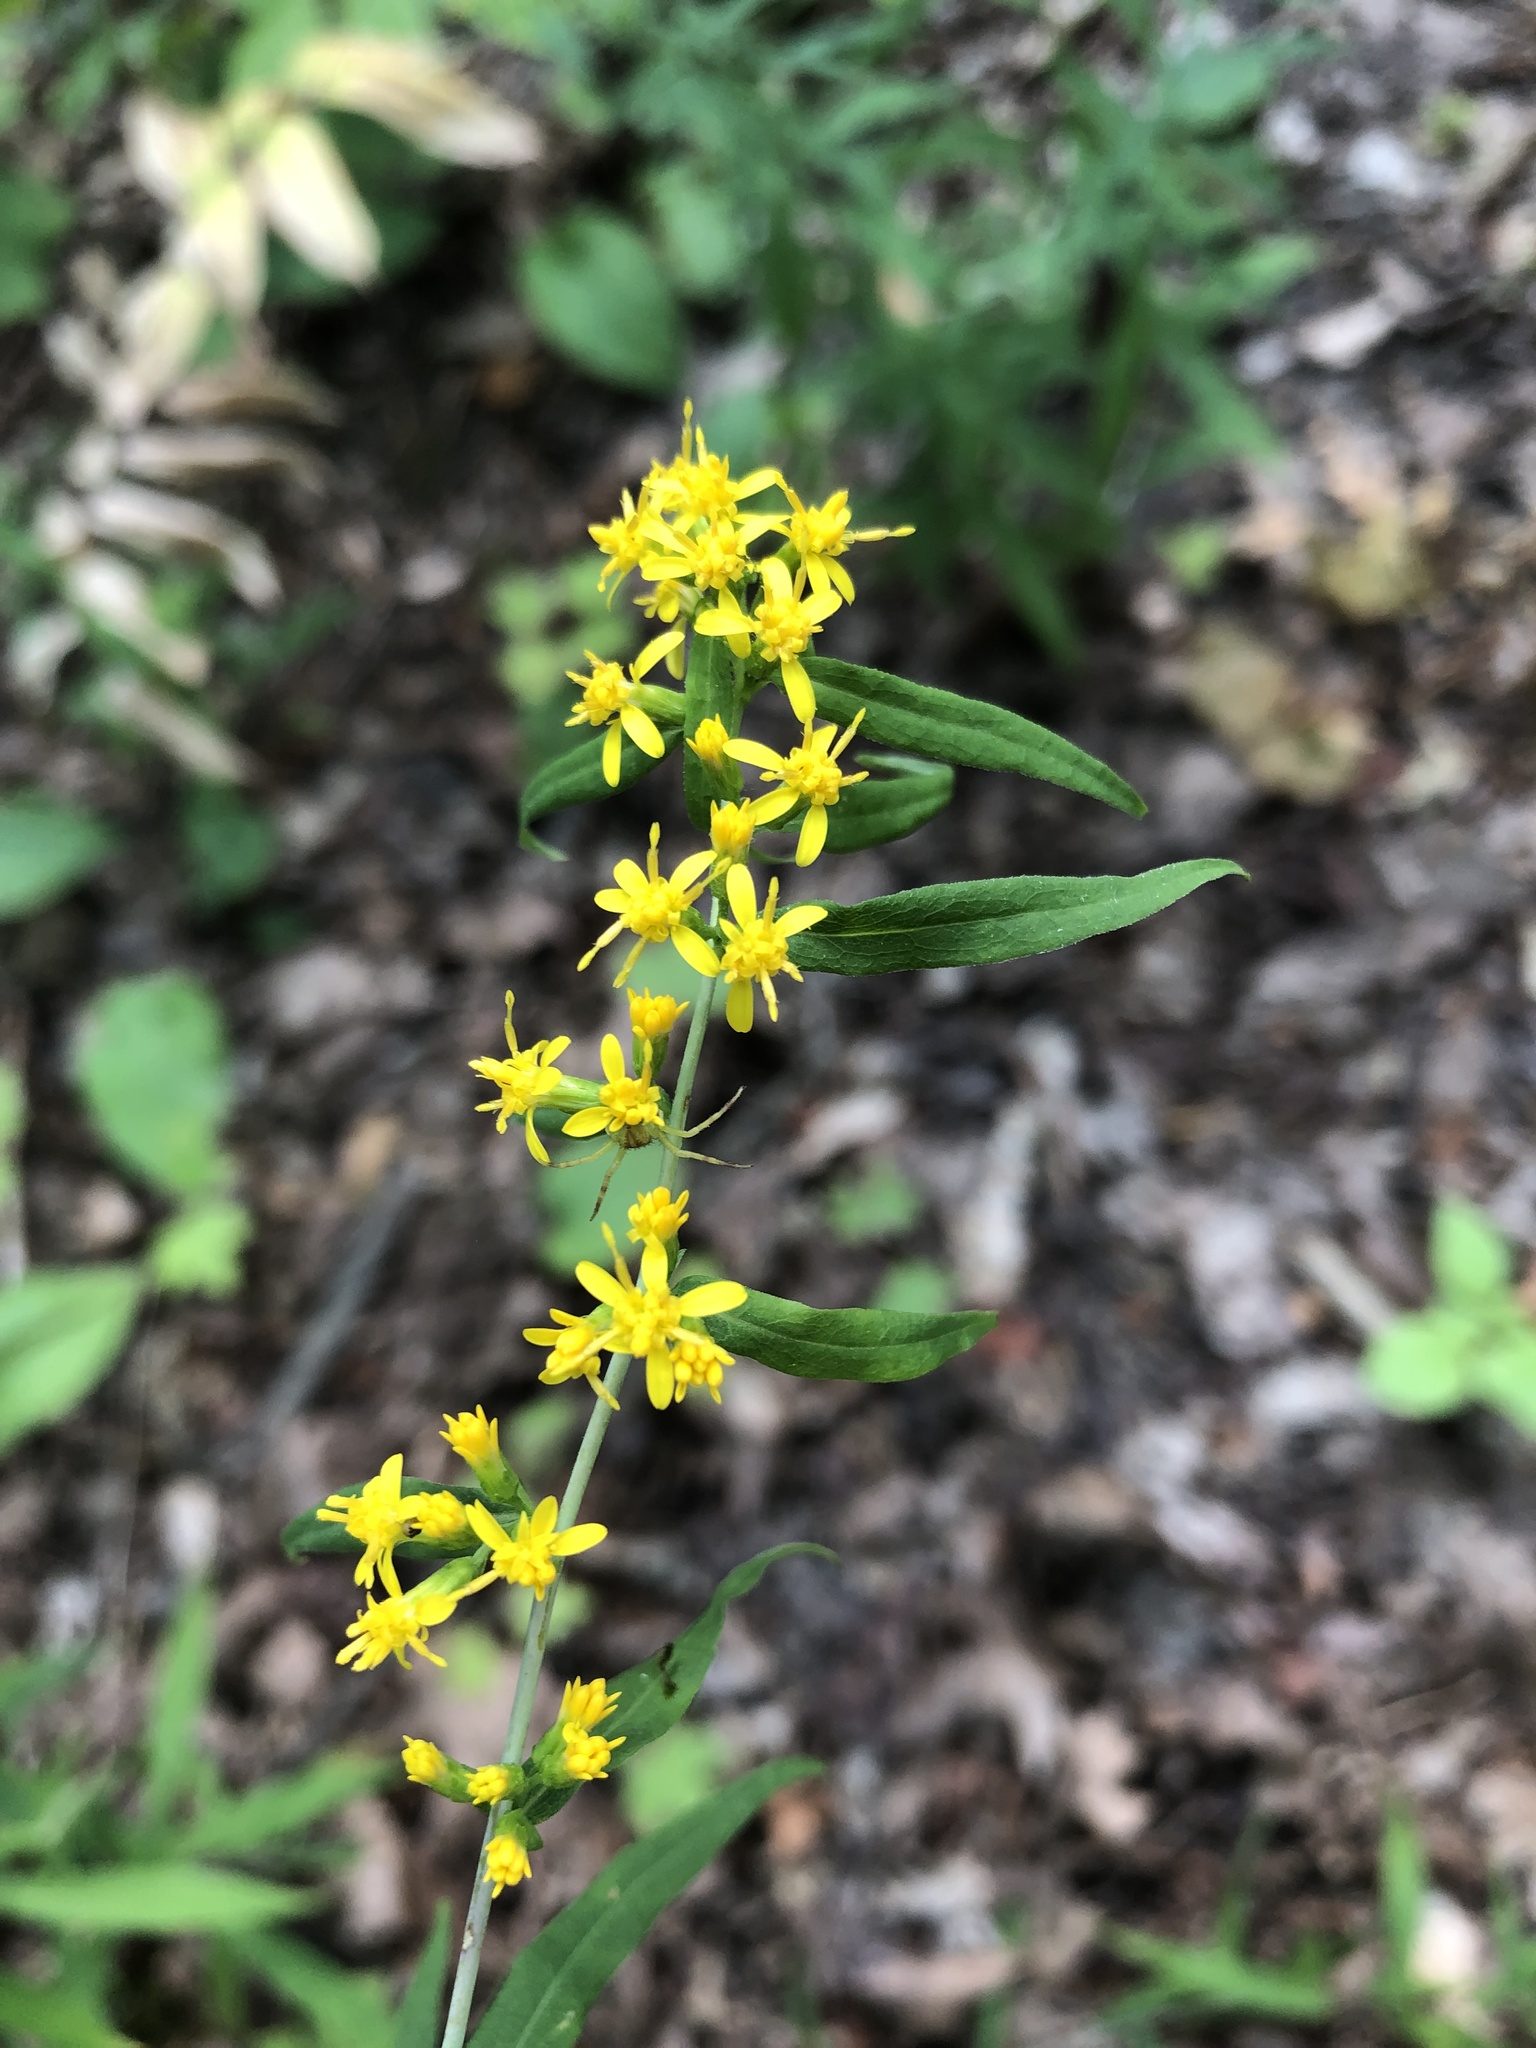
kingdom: Plantae
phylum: Tracheophyta
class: Magnoliopsida
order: Asterales
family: Asteraceae
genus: Solidago
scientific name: Solidago caesia
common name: Woodland goldenrod
